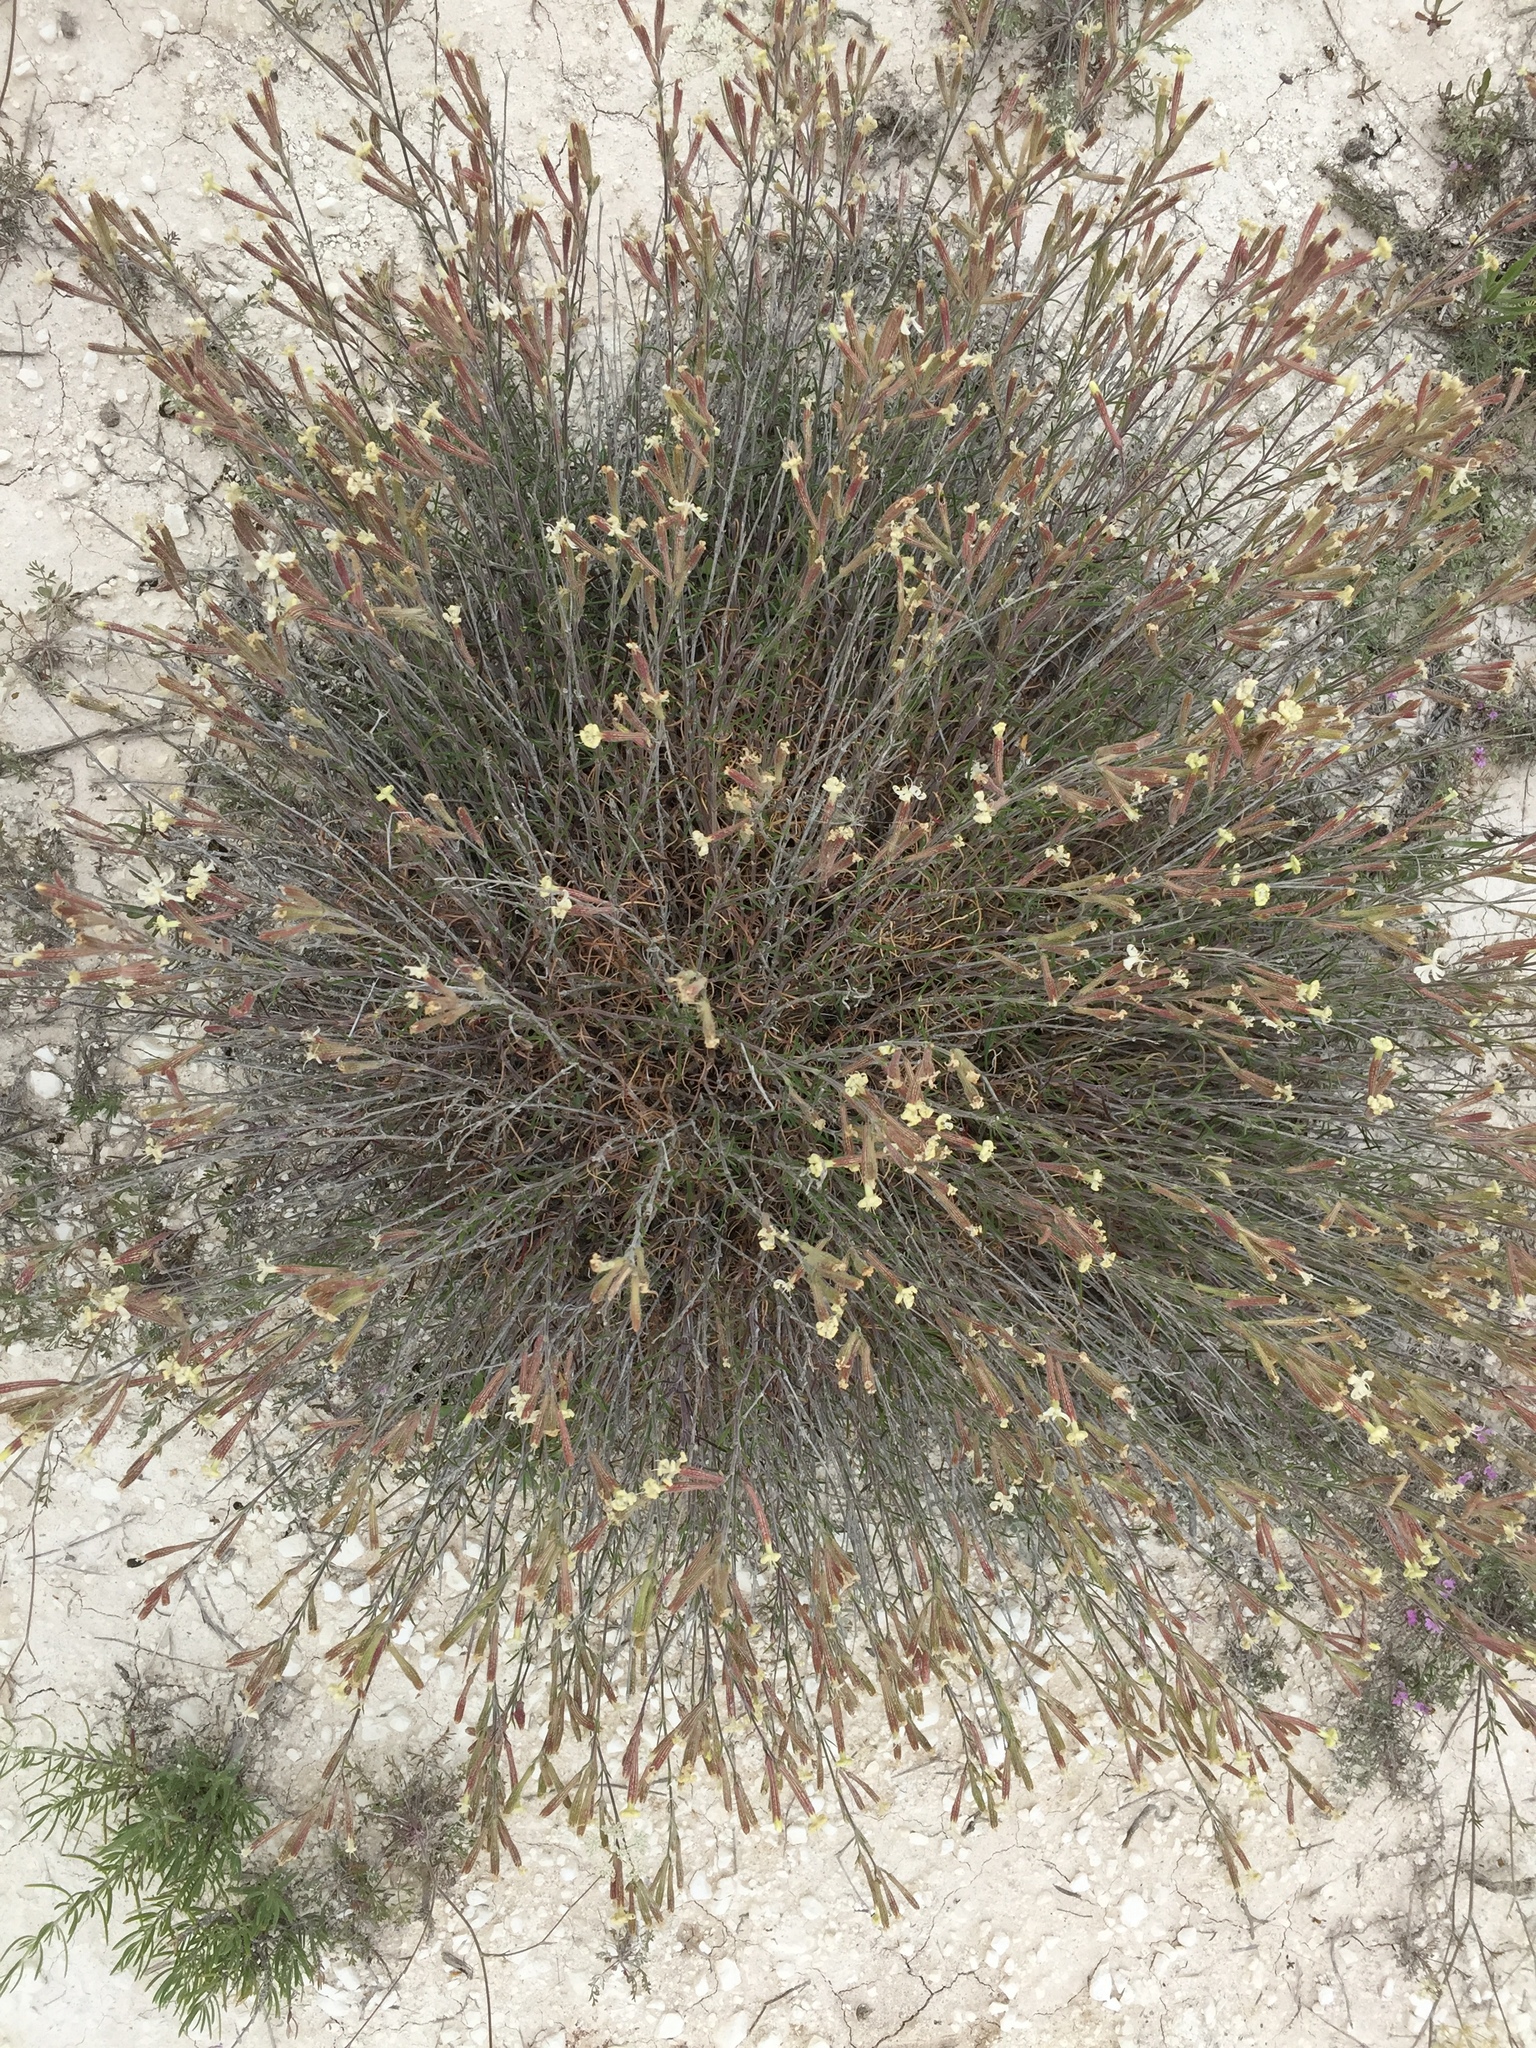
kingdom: Plantae
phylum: Tracheophyta
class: Magnoliopsida
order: Caryophyllales
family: Caryophyllaceae
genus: Silene
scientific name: Silene supina
